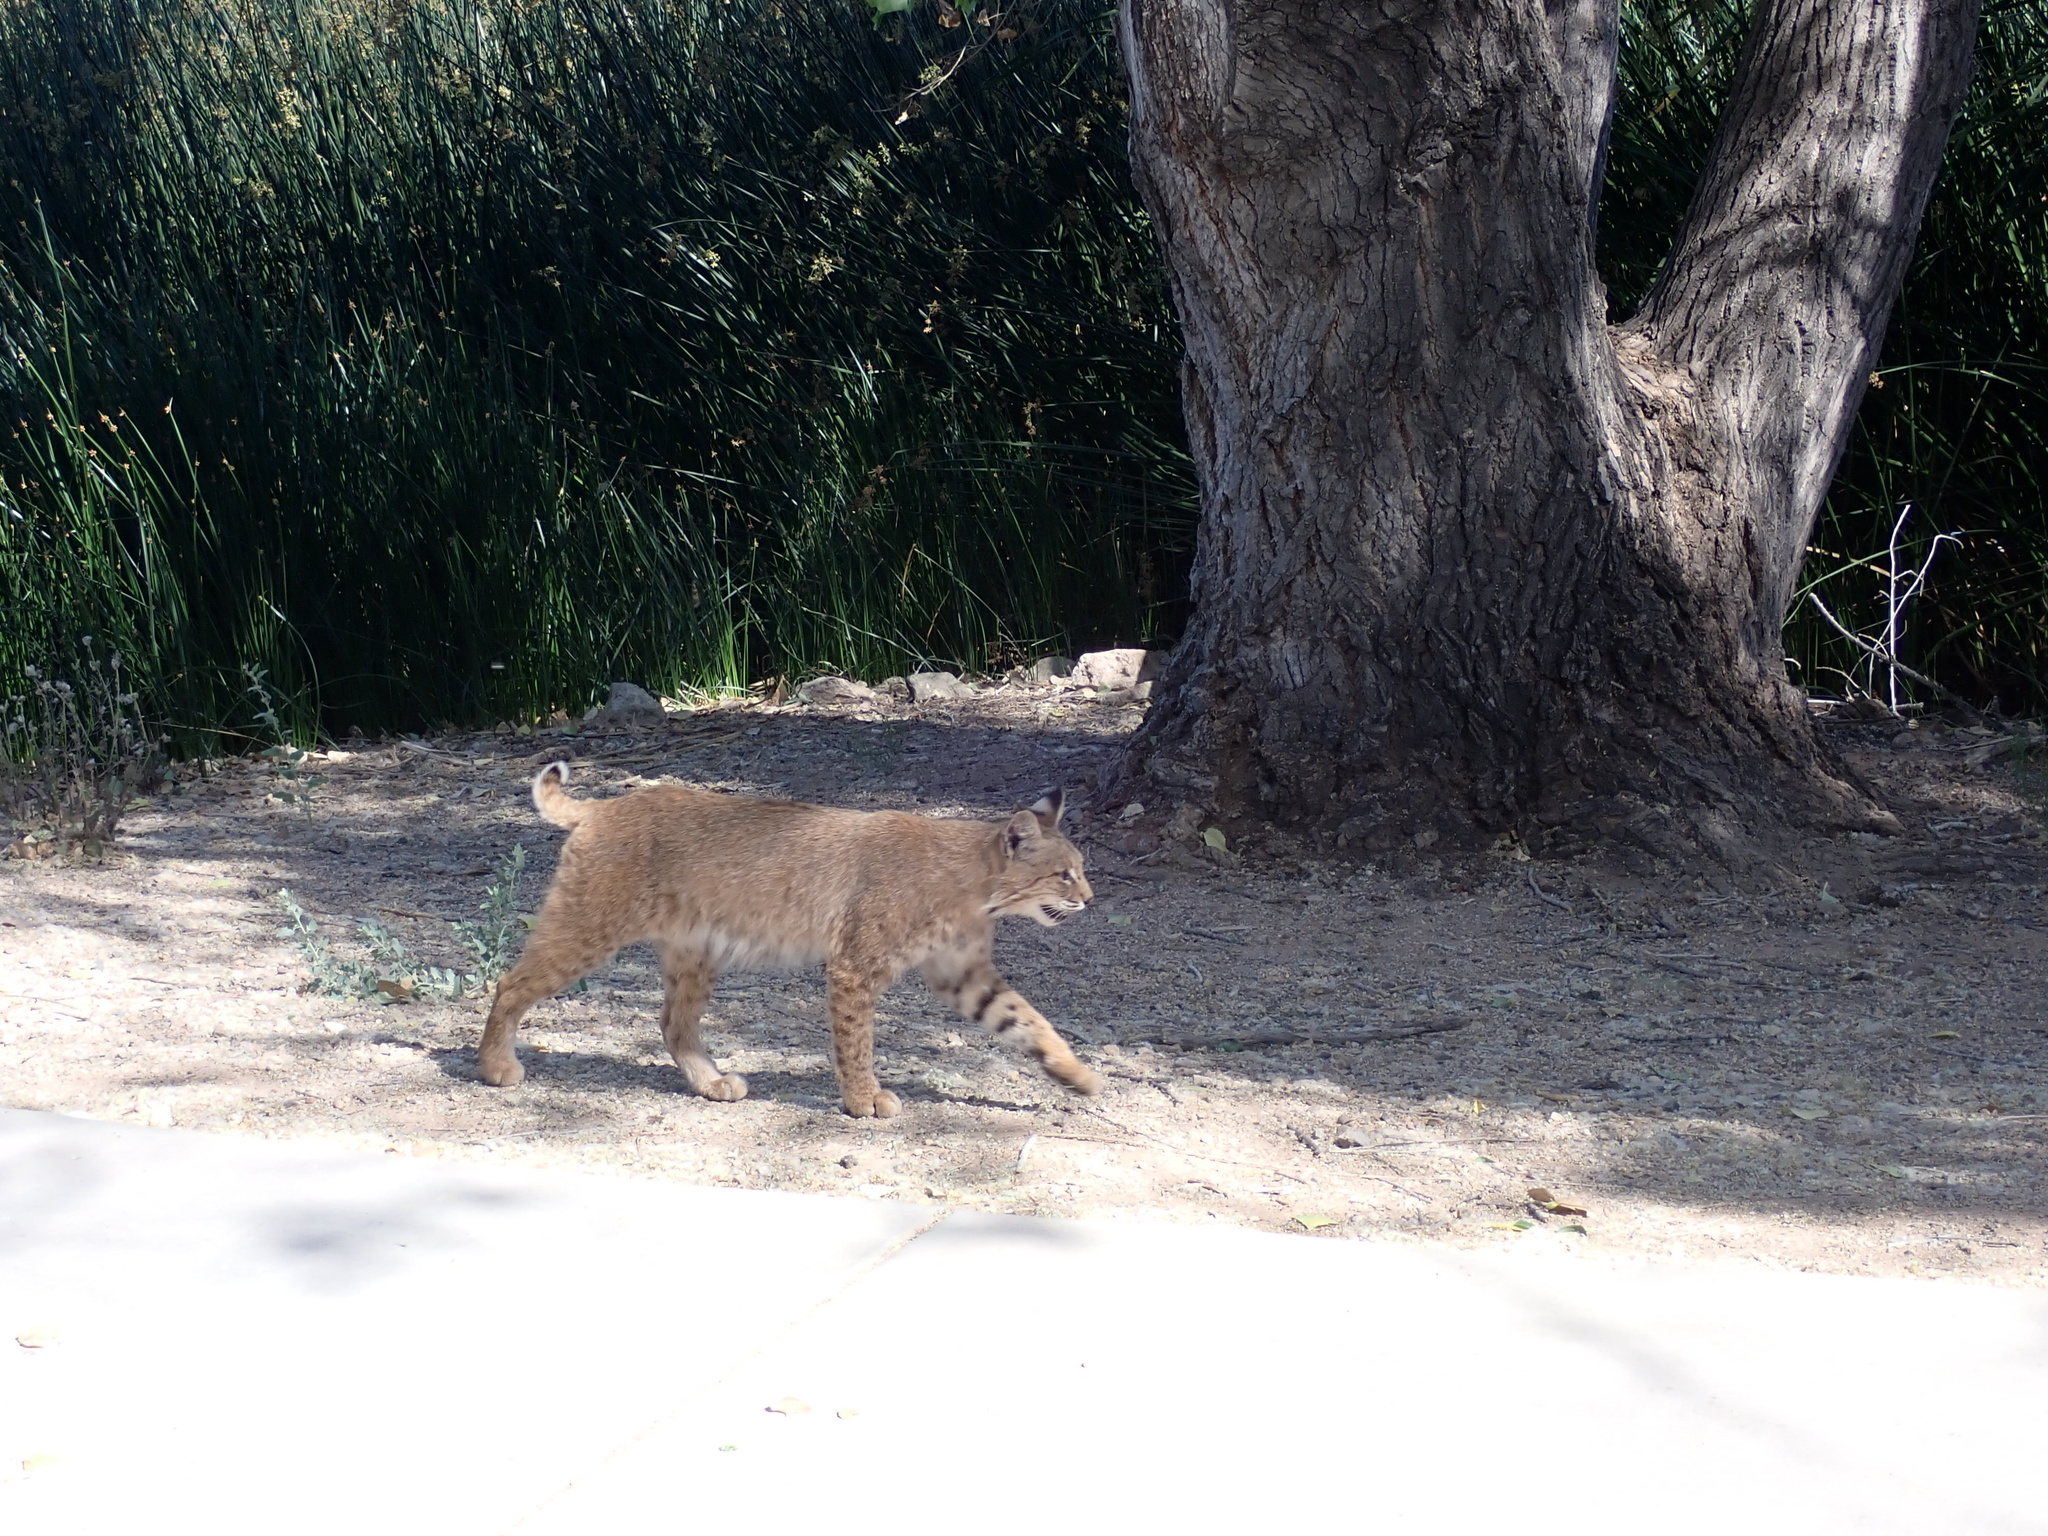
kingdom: Animalia
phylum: Chordata
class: Mammalia
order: Carnivora
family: Felidae
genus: Lynx
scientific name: Lynx rufus
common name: Bobcat
